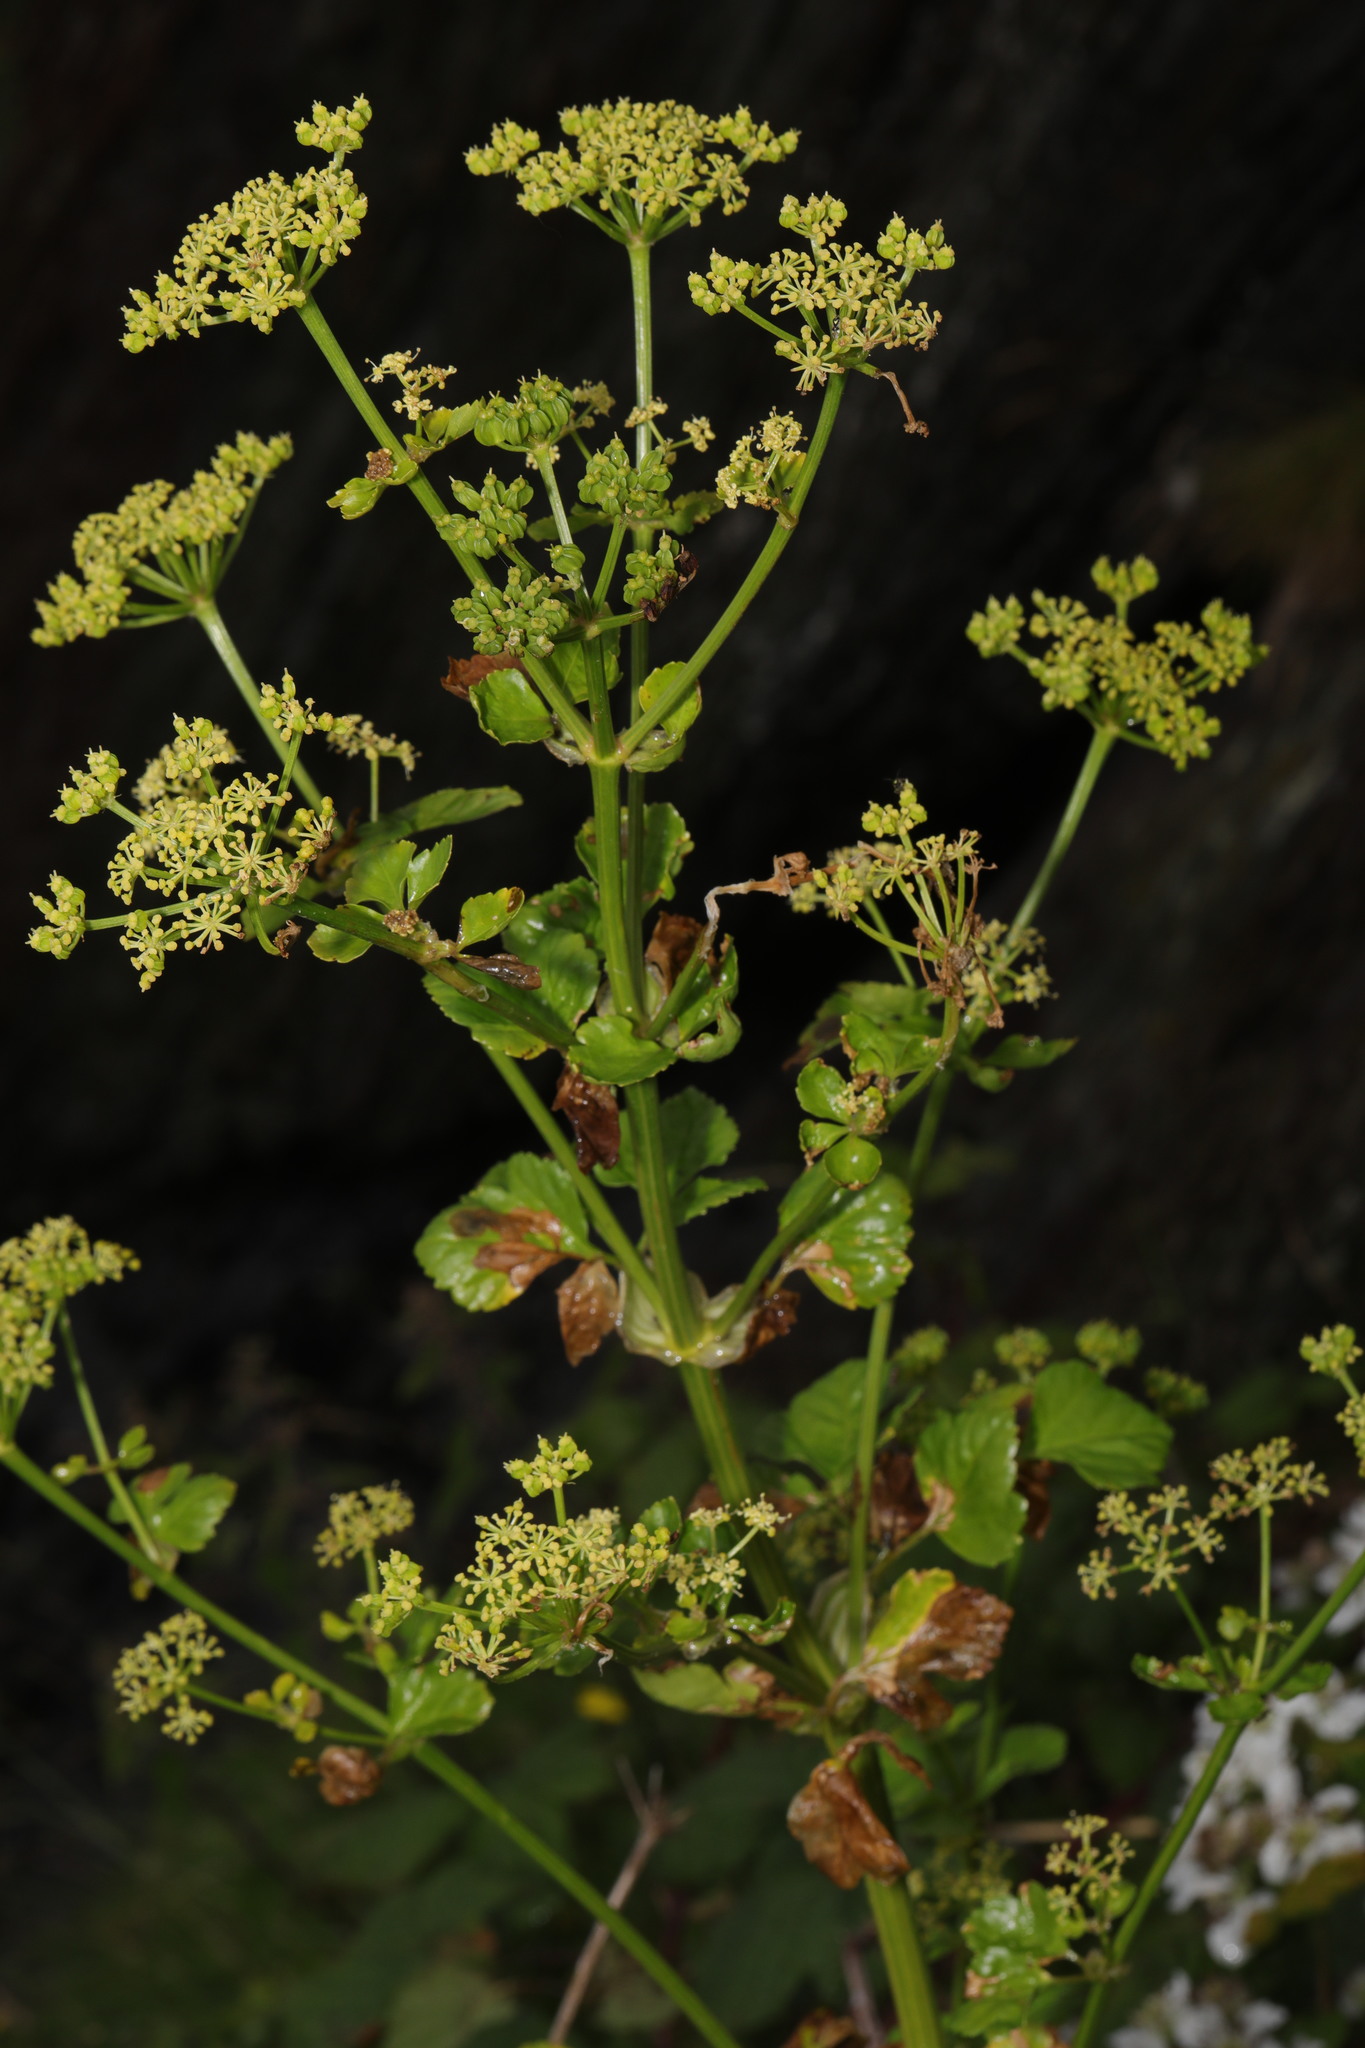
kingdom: Plantae
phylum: Tracheophyta
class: Magnoliopsida
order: Apiales
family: Apiaceae
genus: Smyrnium
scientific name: Smyrnium olusatrum
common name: Alexanders
